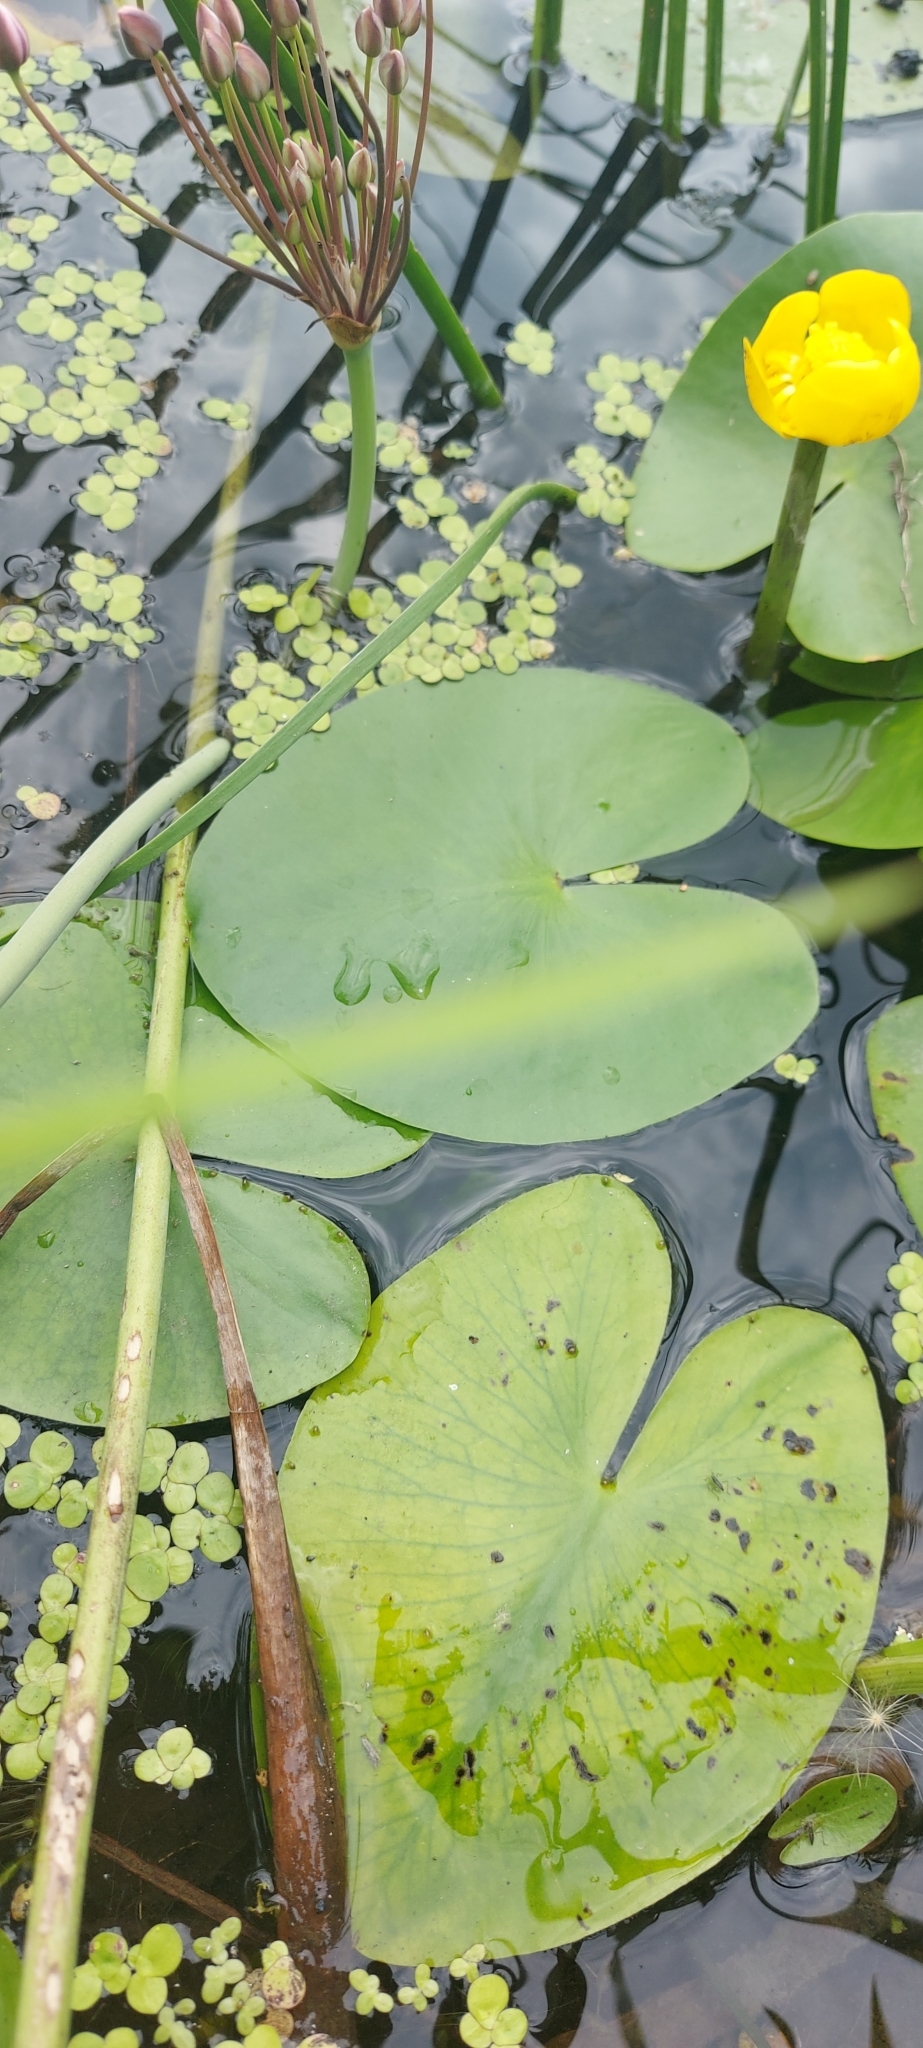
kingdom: Plantae
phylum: Tracheophyta
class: Magnoliopsida
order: Nymphaeales
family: Nymphaeaceae
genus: Nuphar
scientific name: Nuphar lutea
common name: Yellow water-lily
